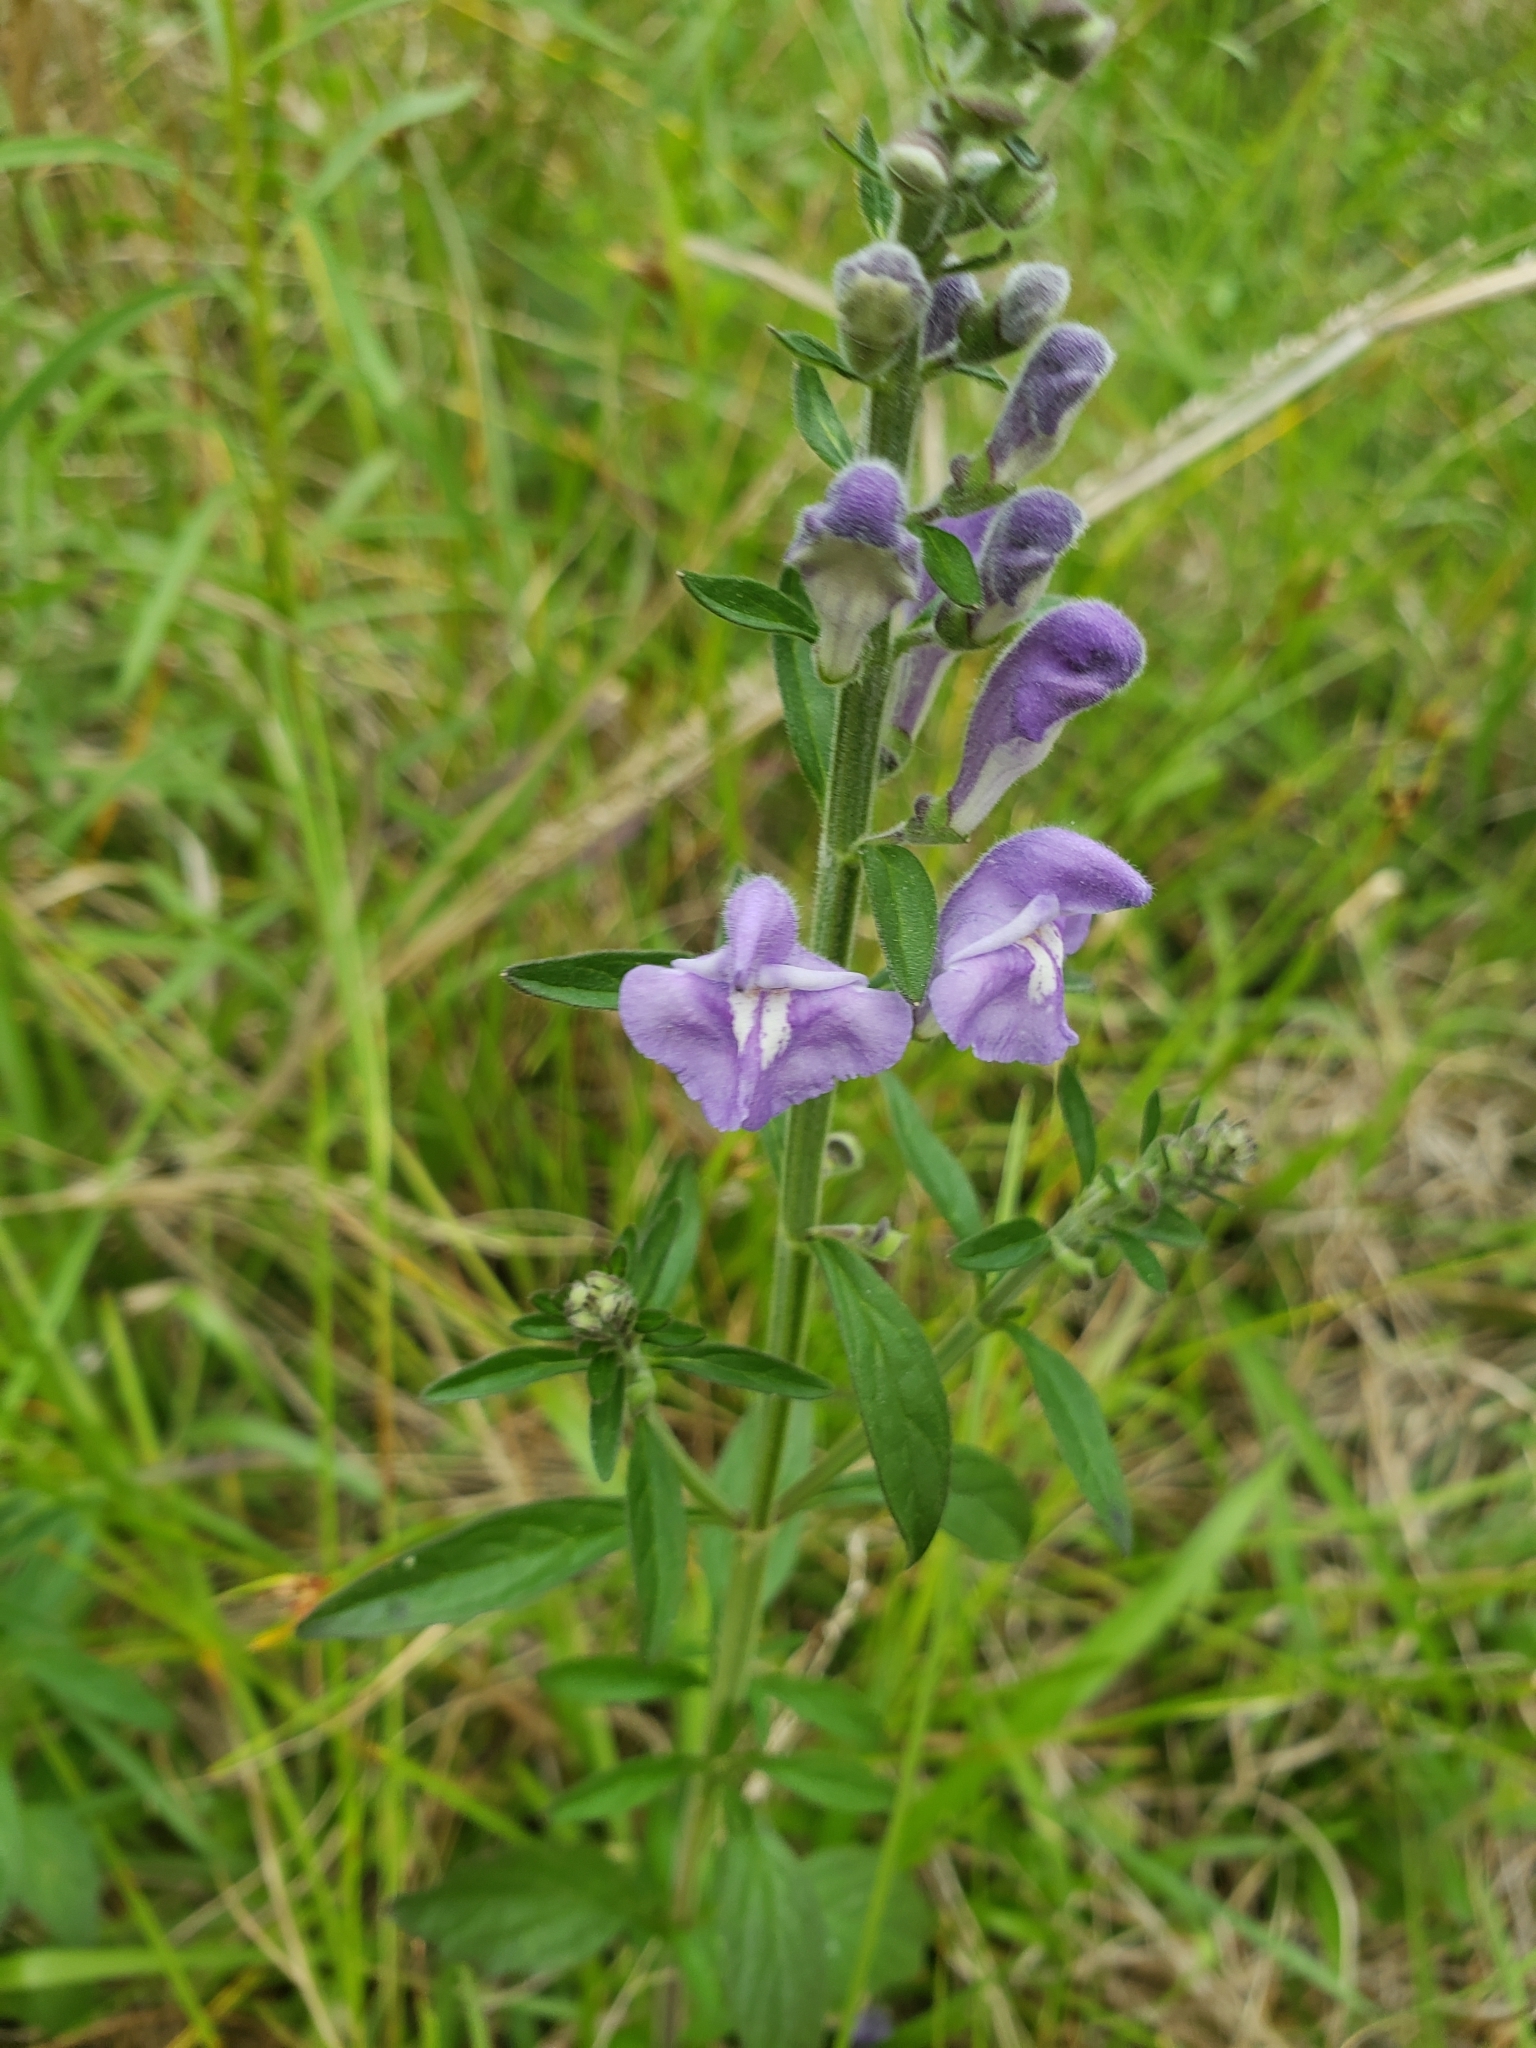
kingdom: Plantae
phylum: Tracheophyta
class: Magnoliopsida
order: Lamiales
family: Lamiaceae
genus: Scutellaria
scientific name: Scutellaria integrifolia
